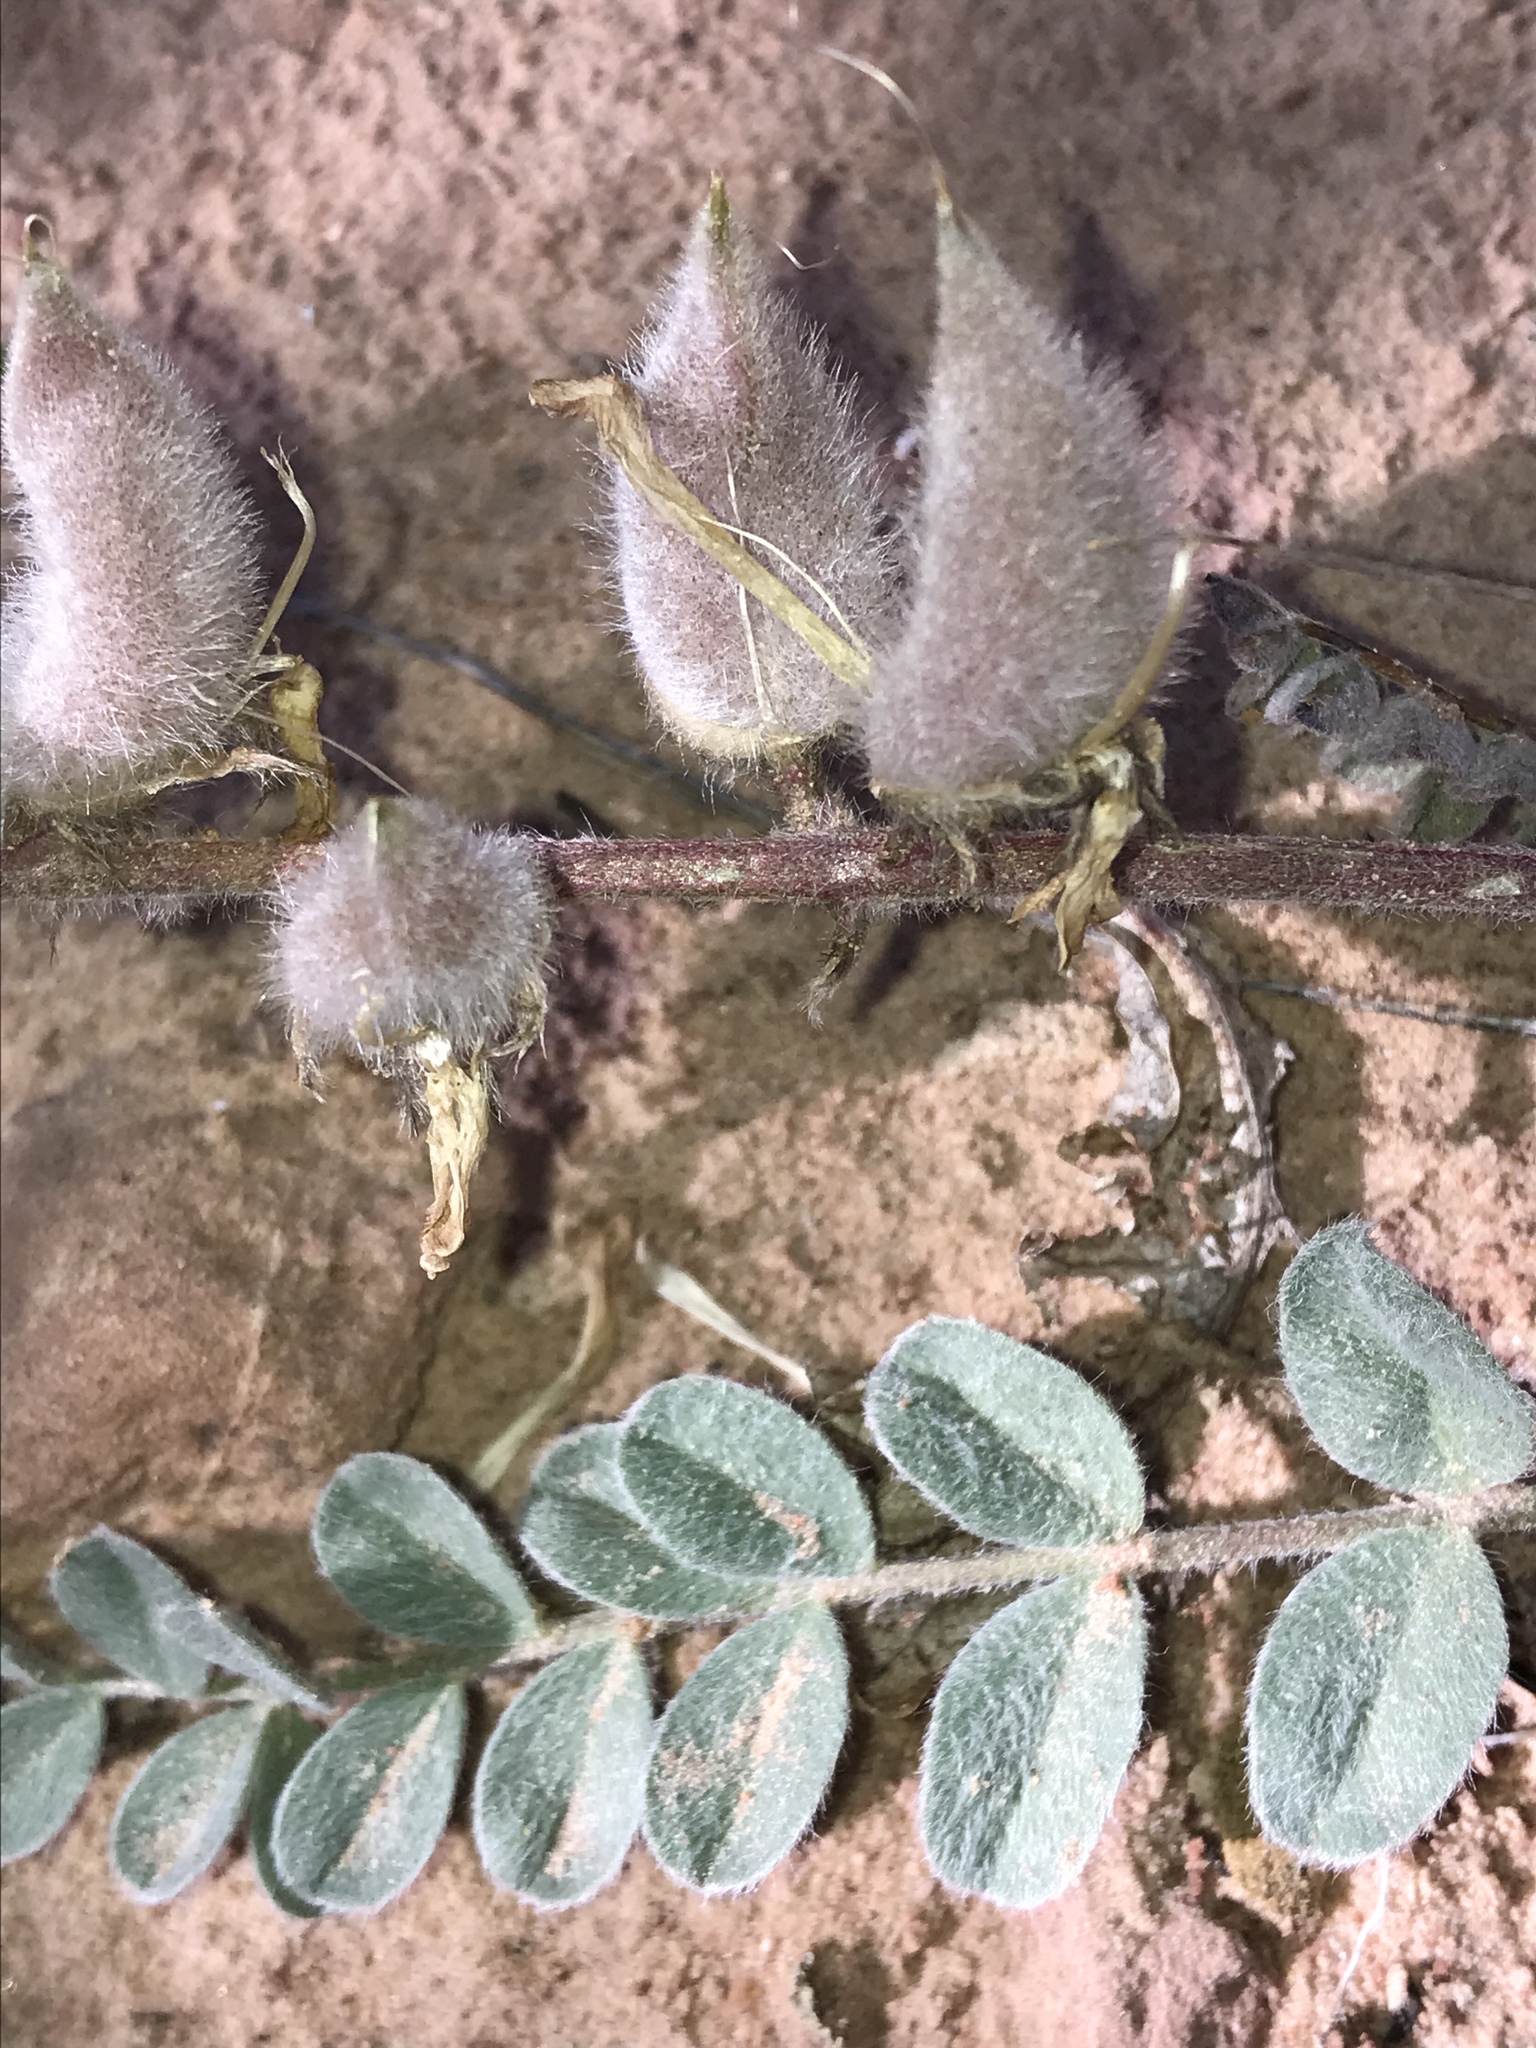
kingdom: Plantae
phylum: Tracheophyta
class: Magnoliopsida
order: Fabales
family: Fabaceae
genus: Astragalus
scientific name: Astragalus mollissimus
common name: Woolly locoweed
